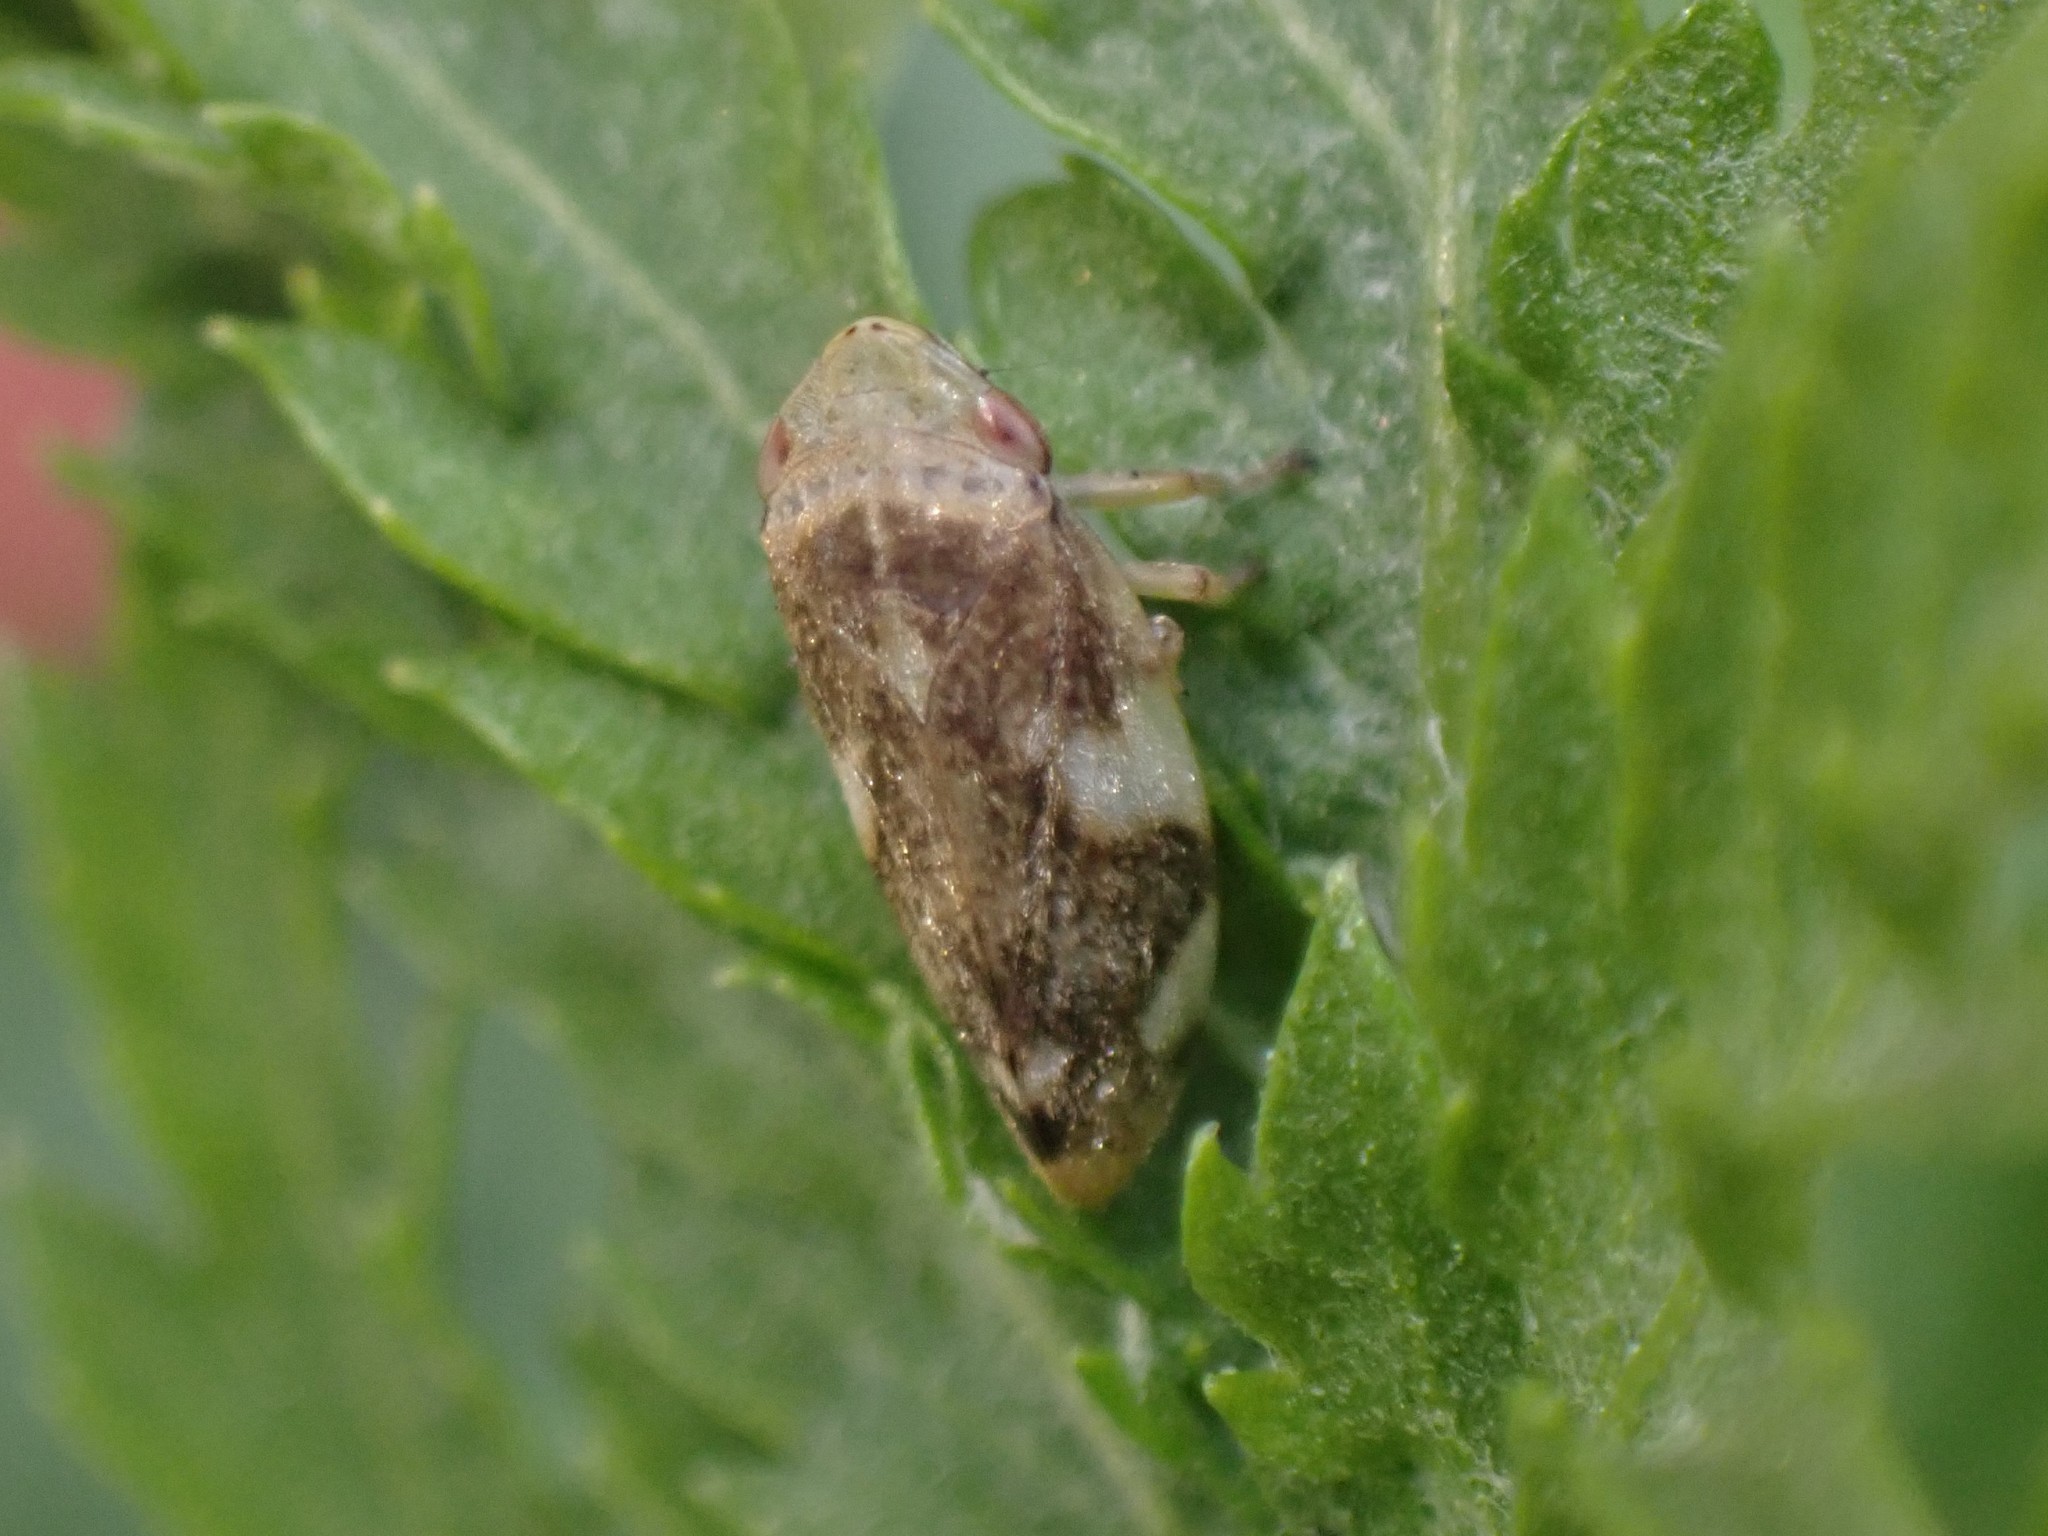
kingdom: Animalia
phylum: Arthropoda
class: Insecta
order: Hemiptera
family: Aphrophoridae
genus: Philaenus
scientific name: Philaenus spumarius
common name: Meadow spittlebug
